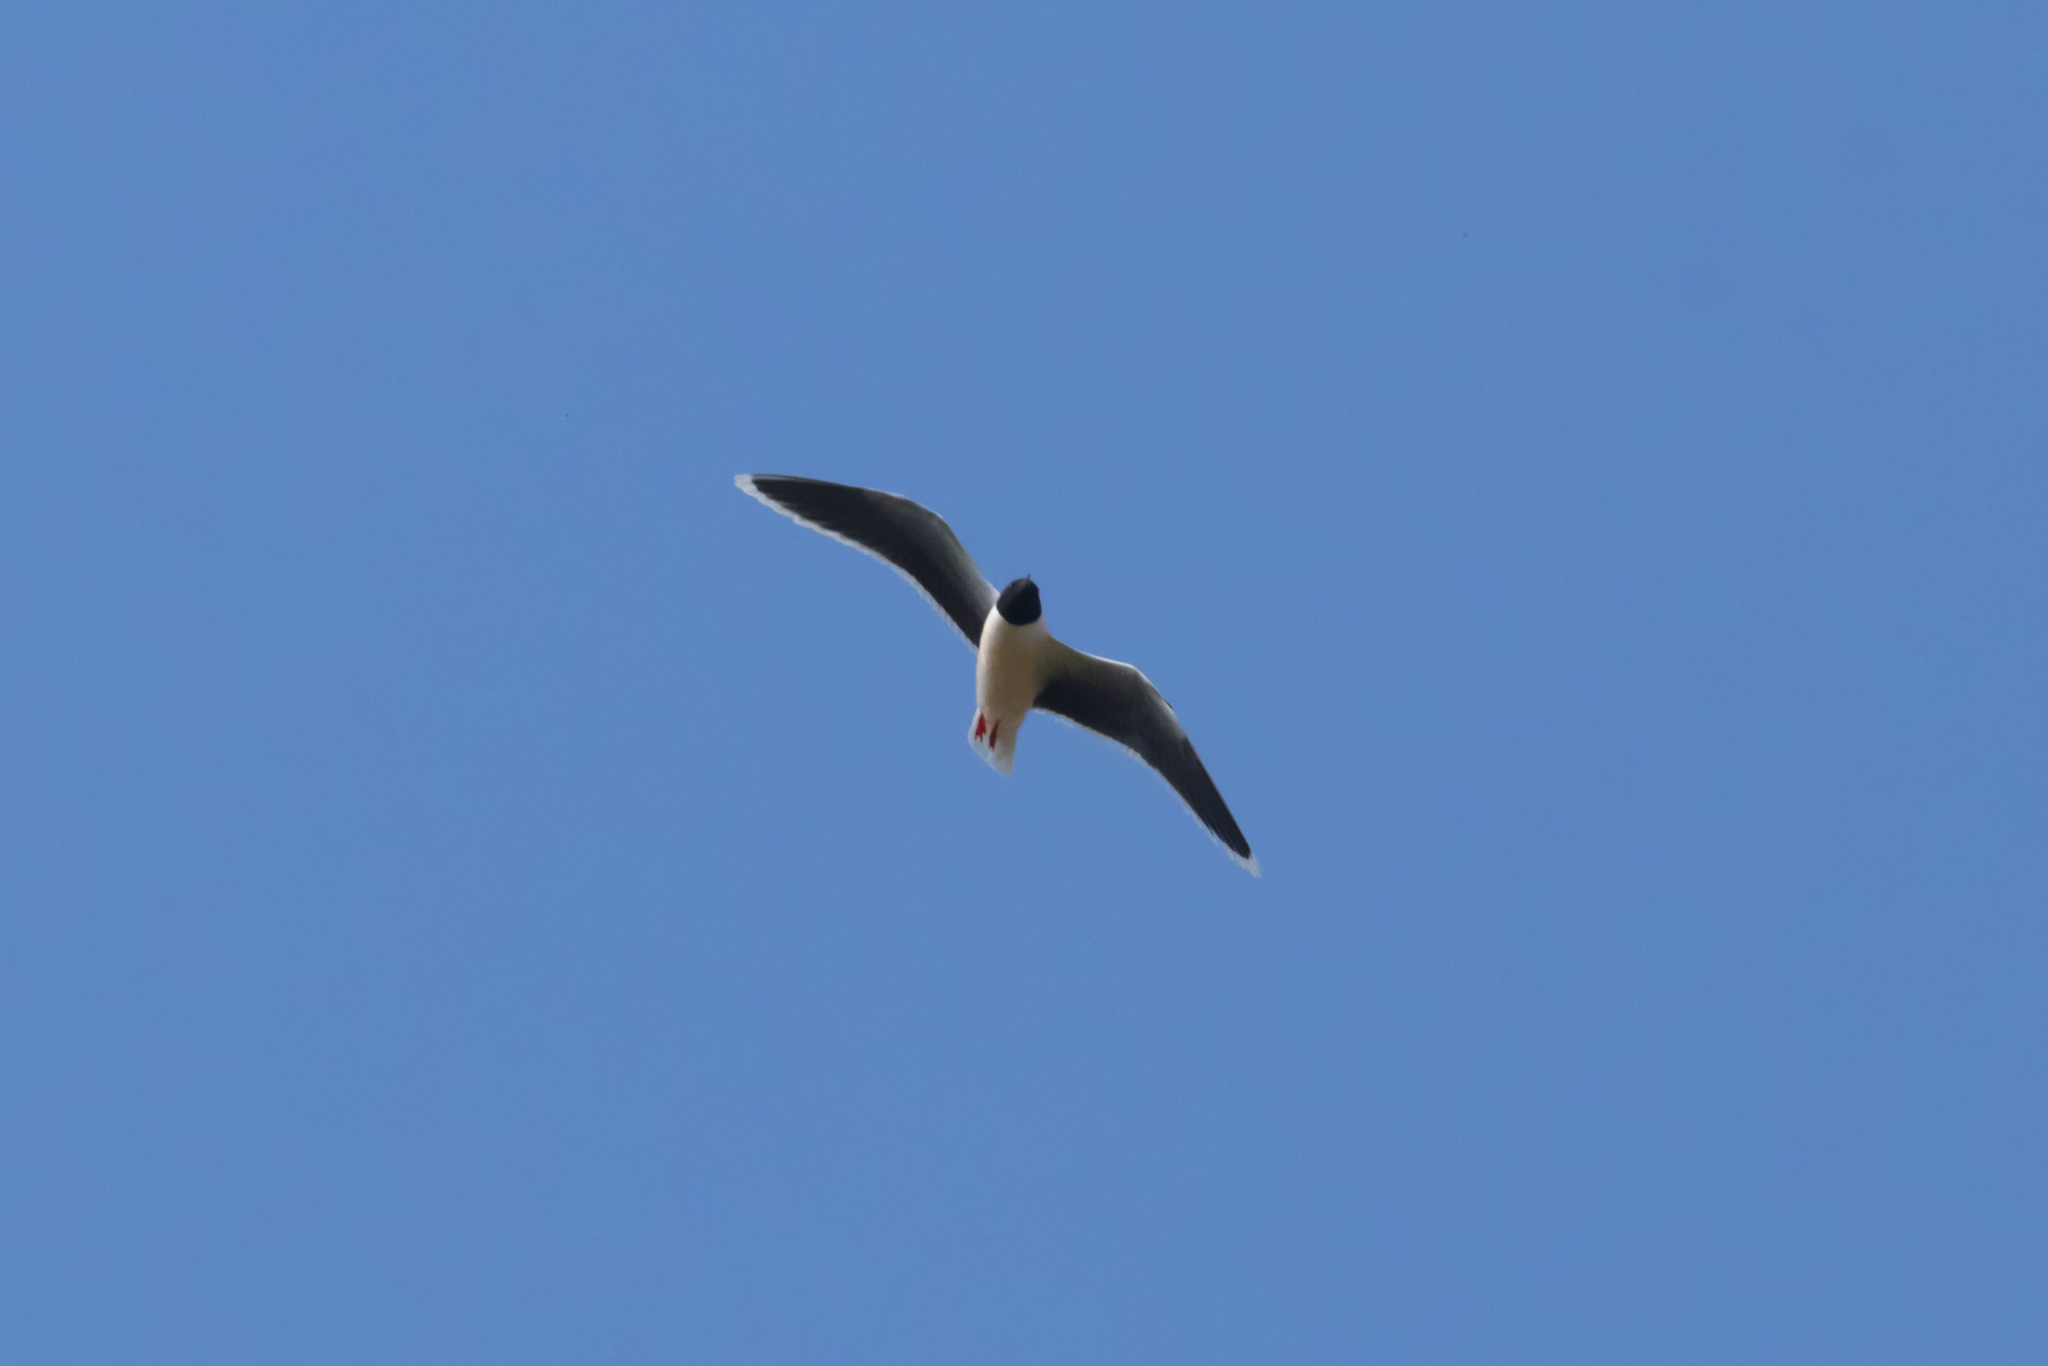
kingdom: Animalia
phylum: Chordata
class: Aves
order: Charadriiformes
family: Laridae
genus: Hydrocoloeus
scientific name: Hydrocoloeus minutus
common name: Little gull
